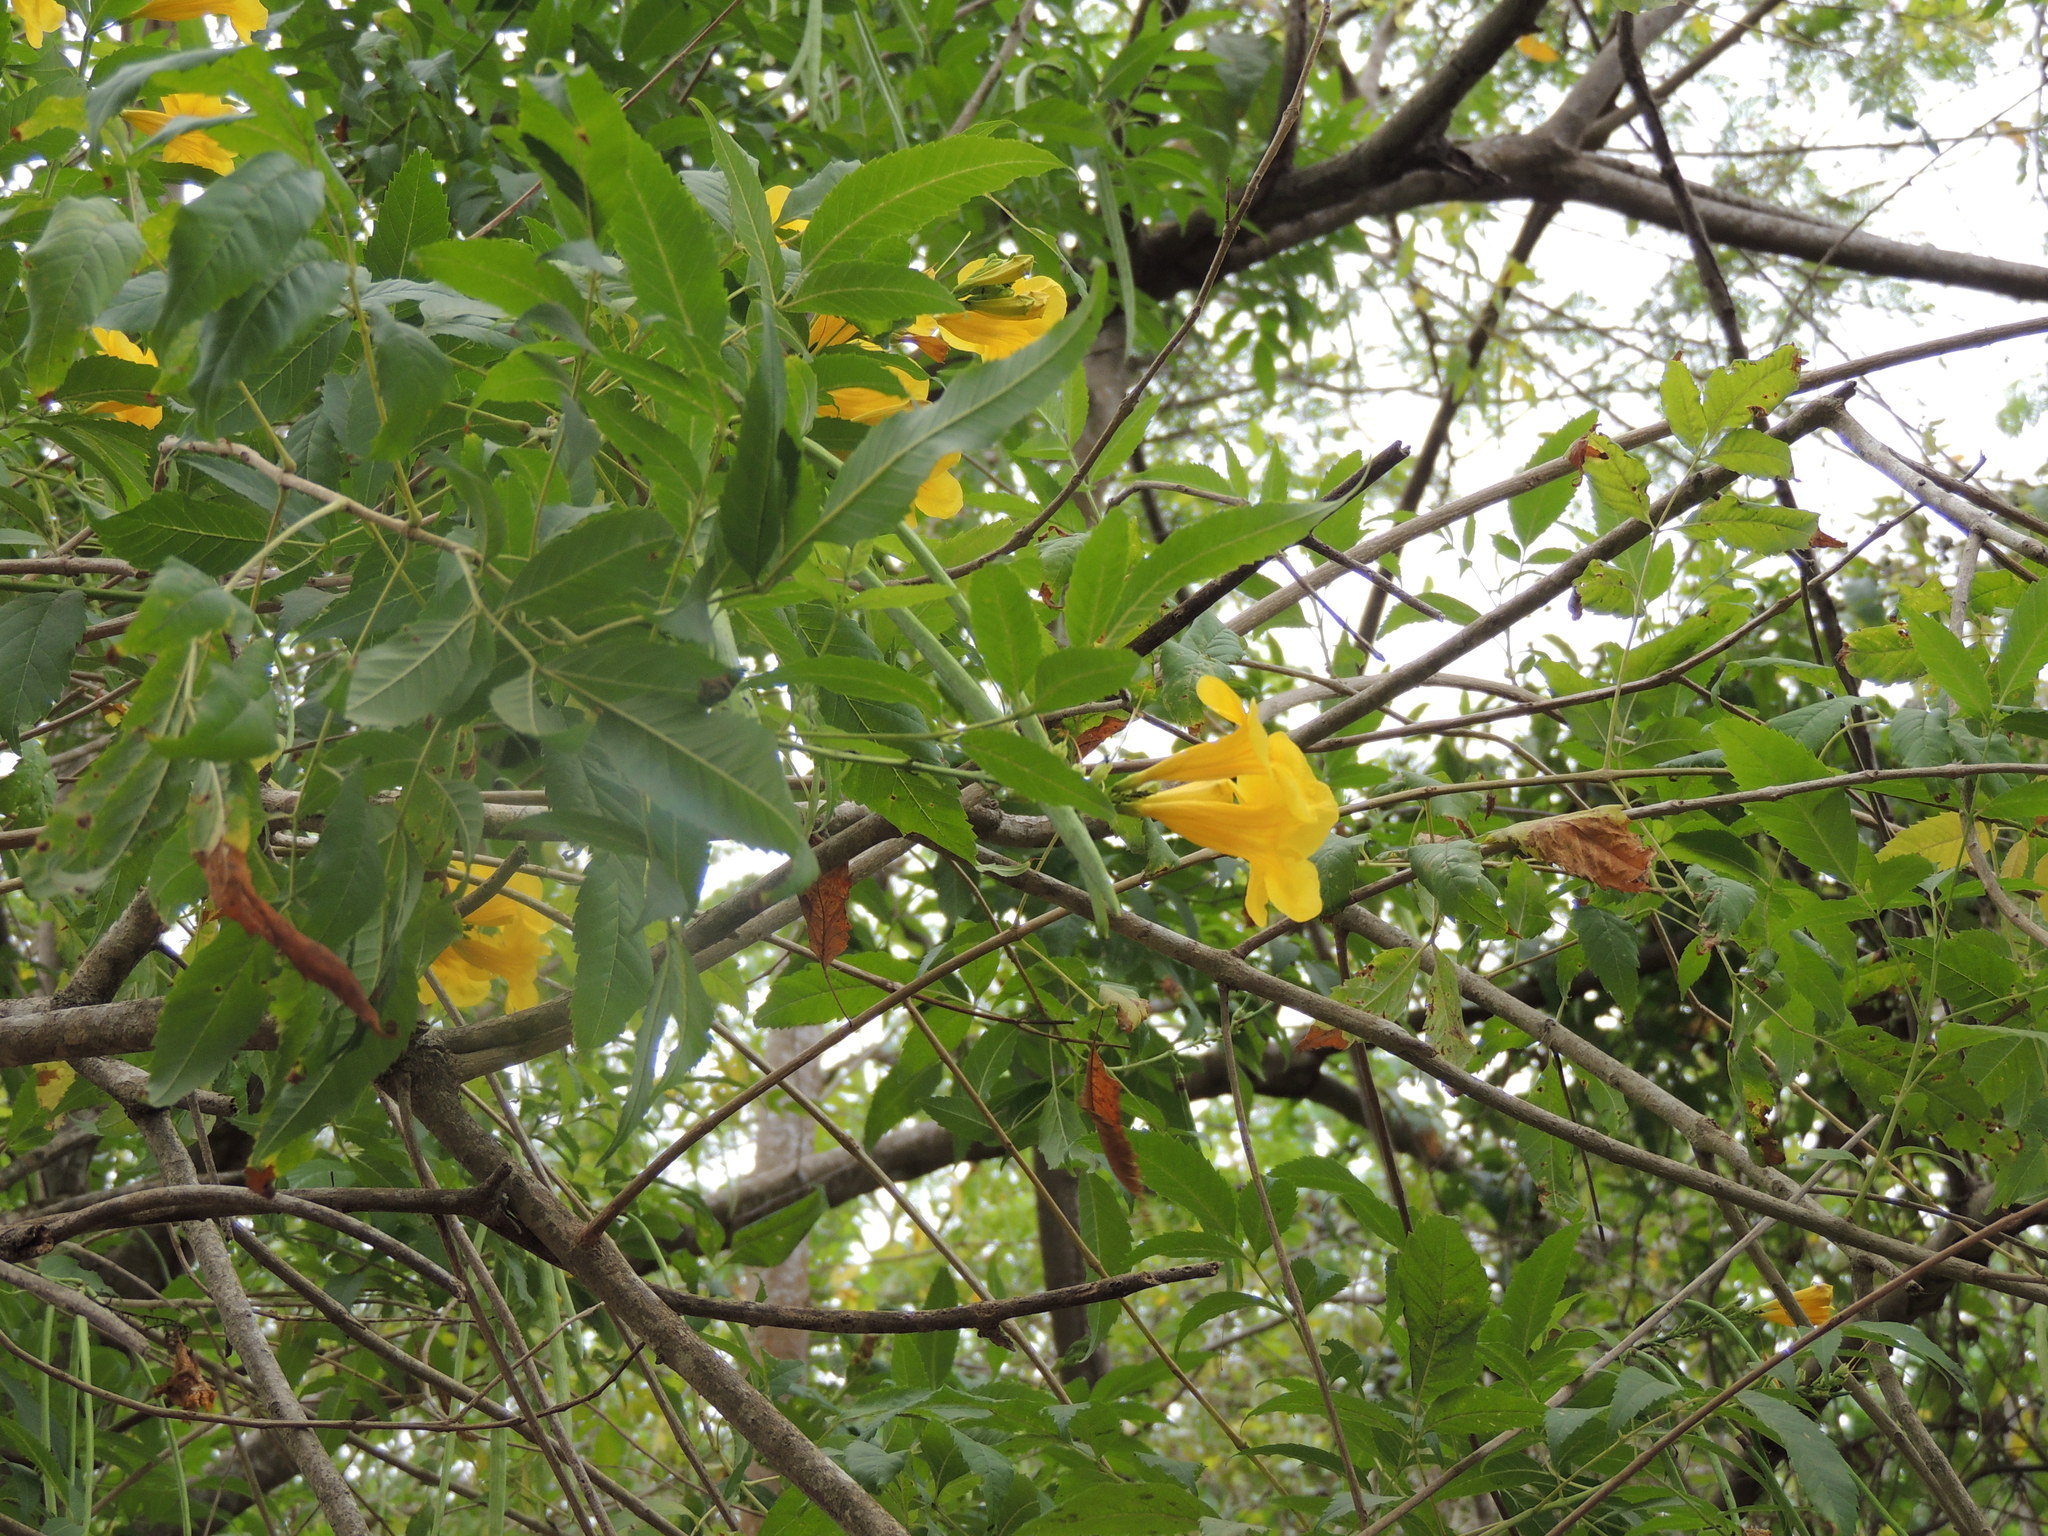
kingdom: Plantae
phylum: Tracheophyta
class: Magnoliopsida
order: Lamiales
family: Bignoniaceae
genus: Tecoma
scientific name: Tecoma stans
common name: Yellow trumpetbush
